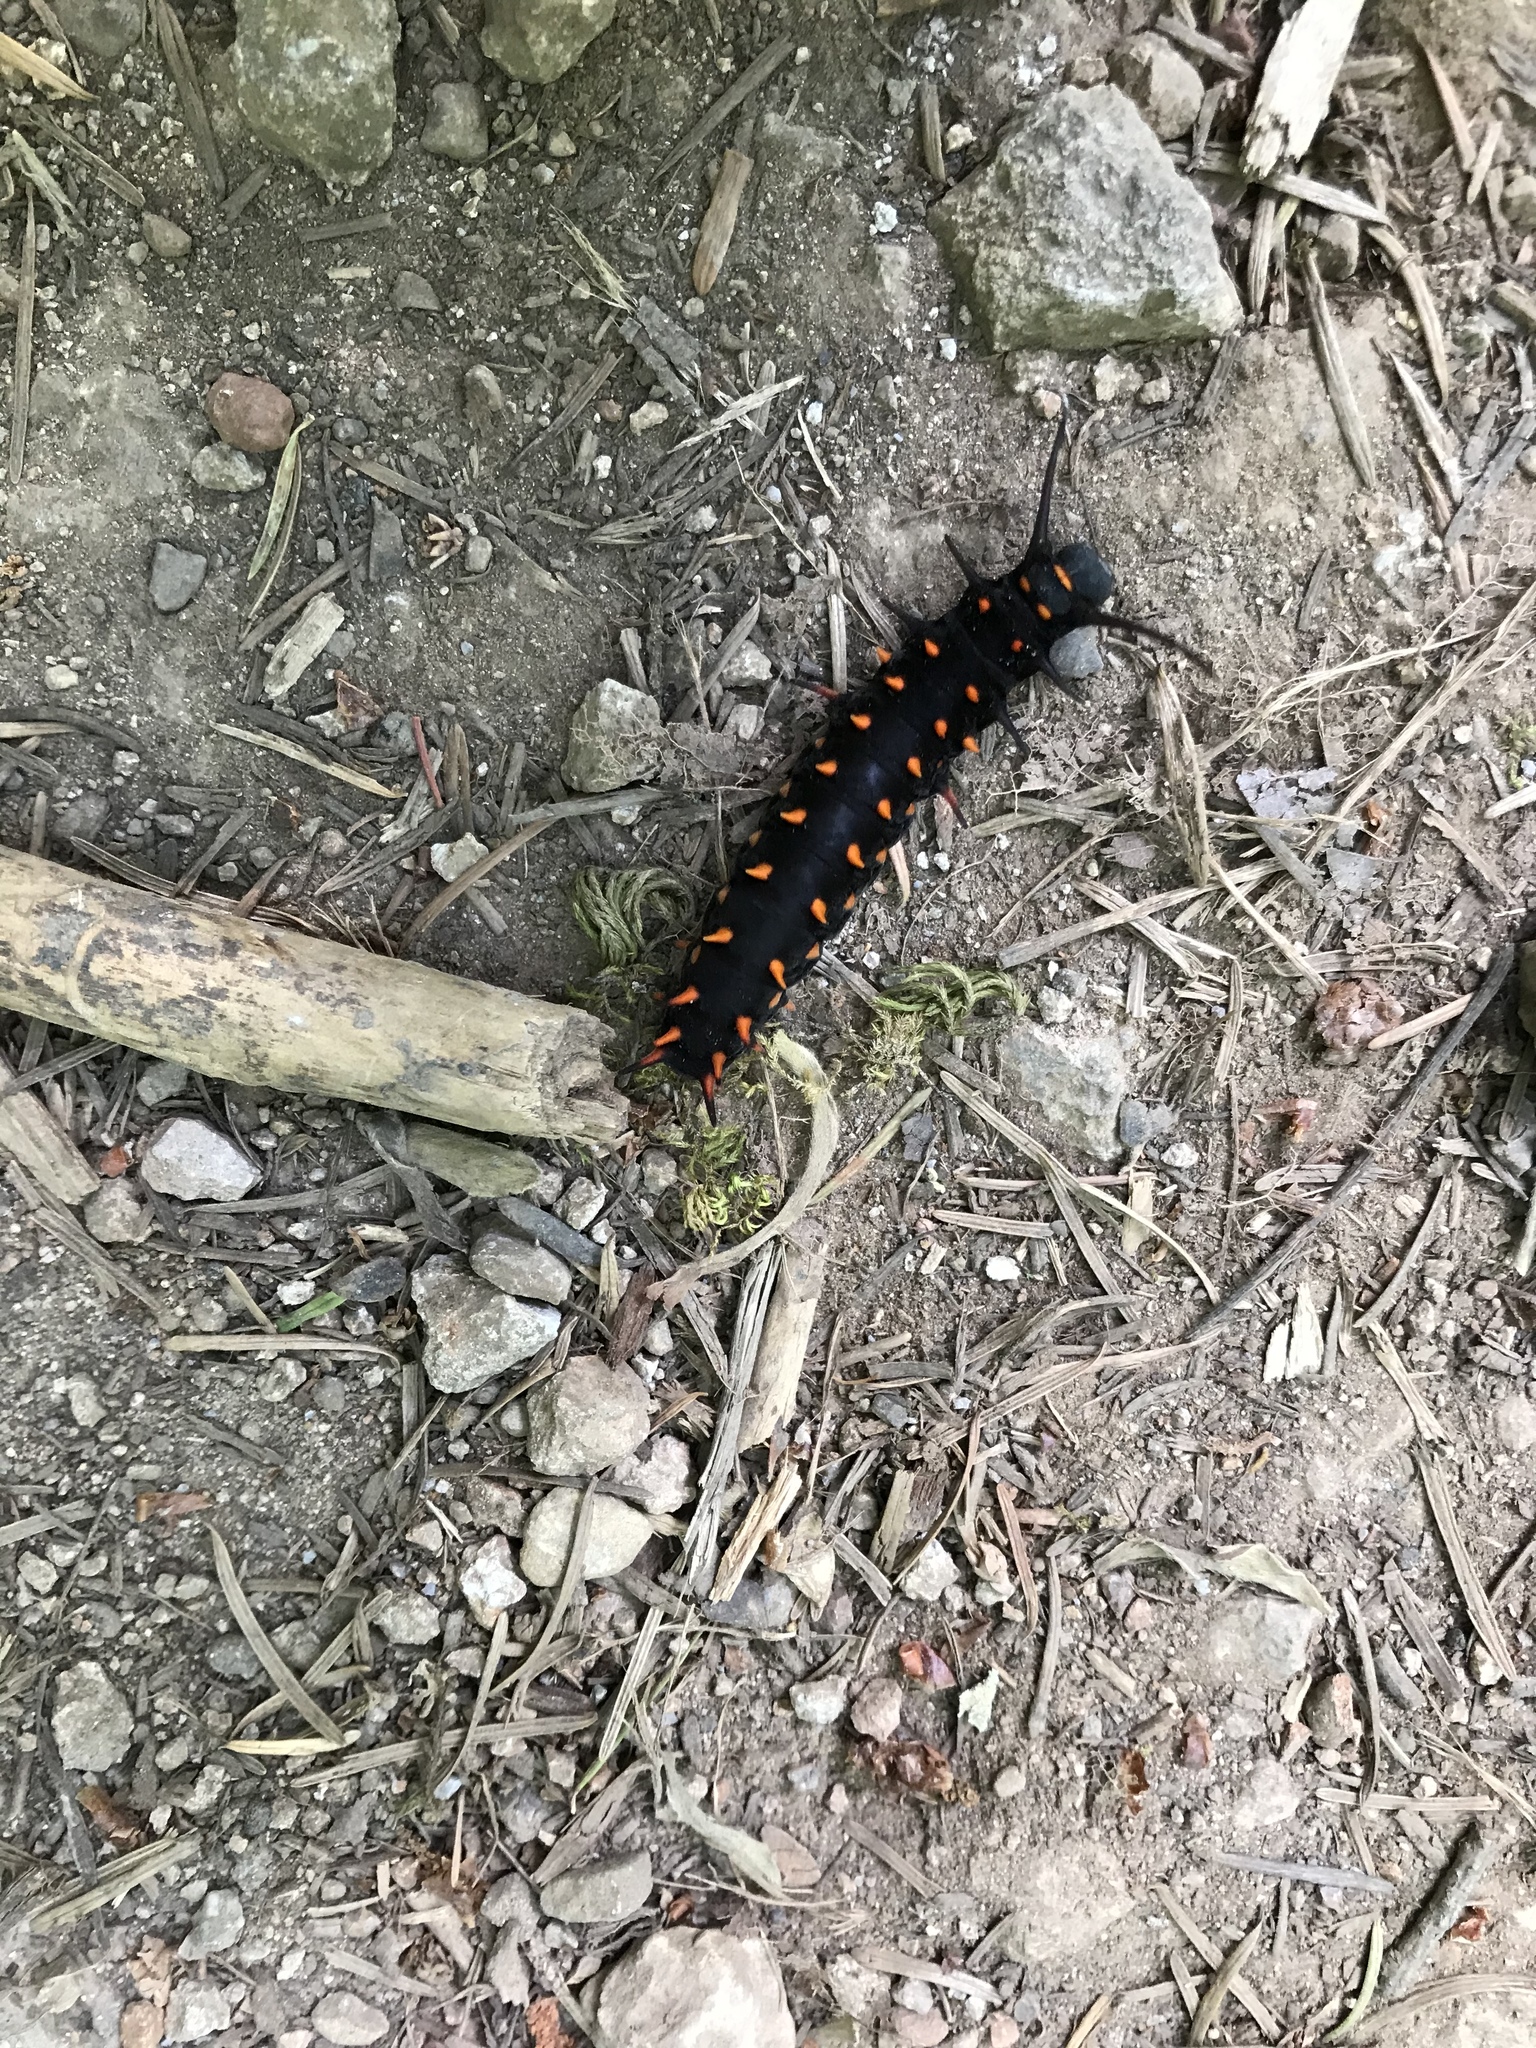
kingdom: Animalia
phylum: Arthropoda
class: Insecta
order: Lepidoptera
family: Papilionidae
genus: Battus
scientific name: Battus philenor
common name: Pipevine swallowtail
